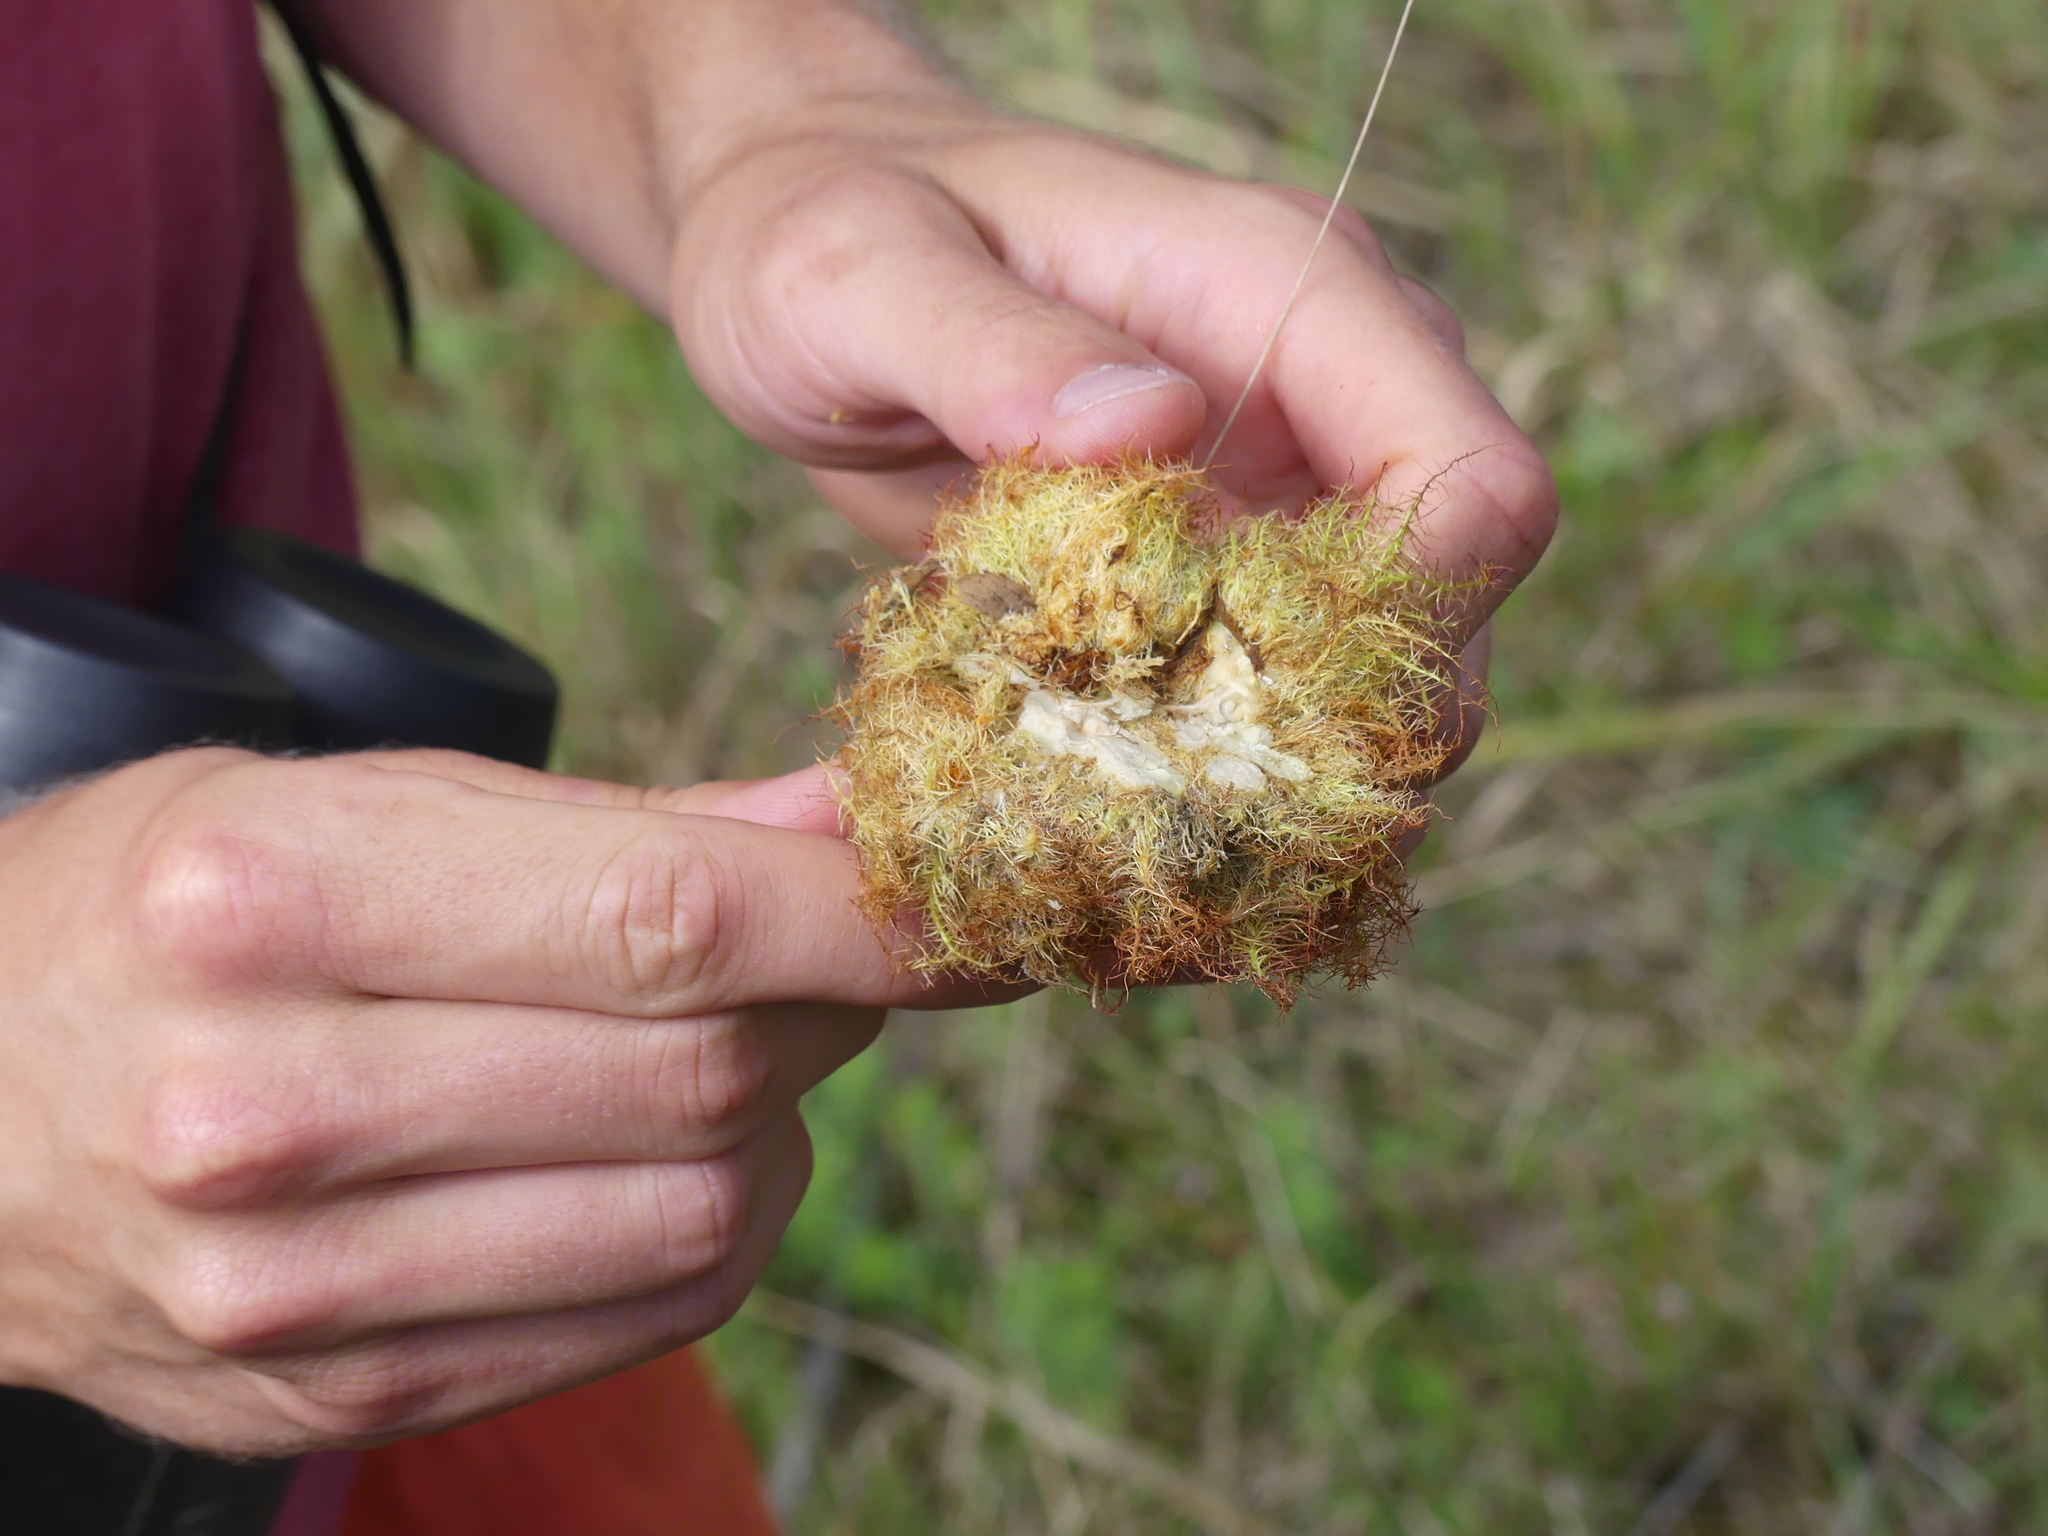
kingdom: Animalia
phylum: Arthropoda
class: Insecta
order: Hymenoptera
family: Cynipidae
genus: Diplolepis
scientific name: Diplolepis rosae
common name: Bedeguar gall
